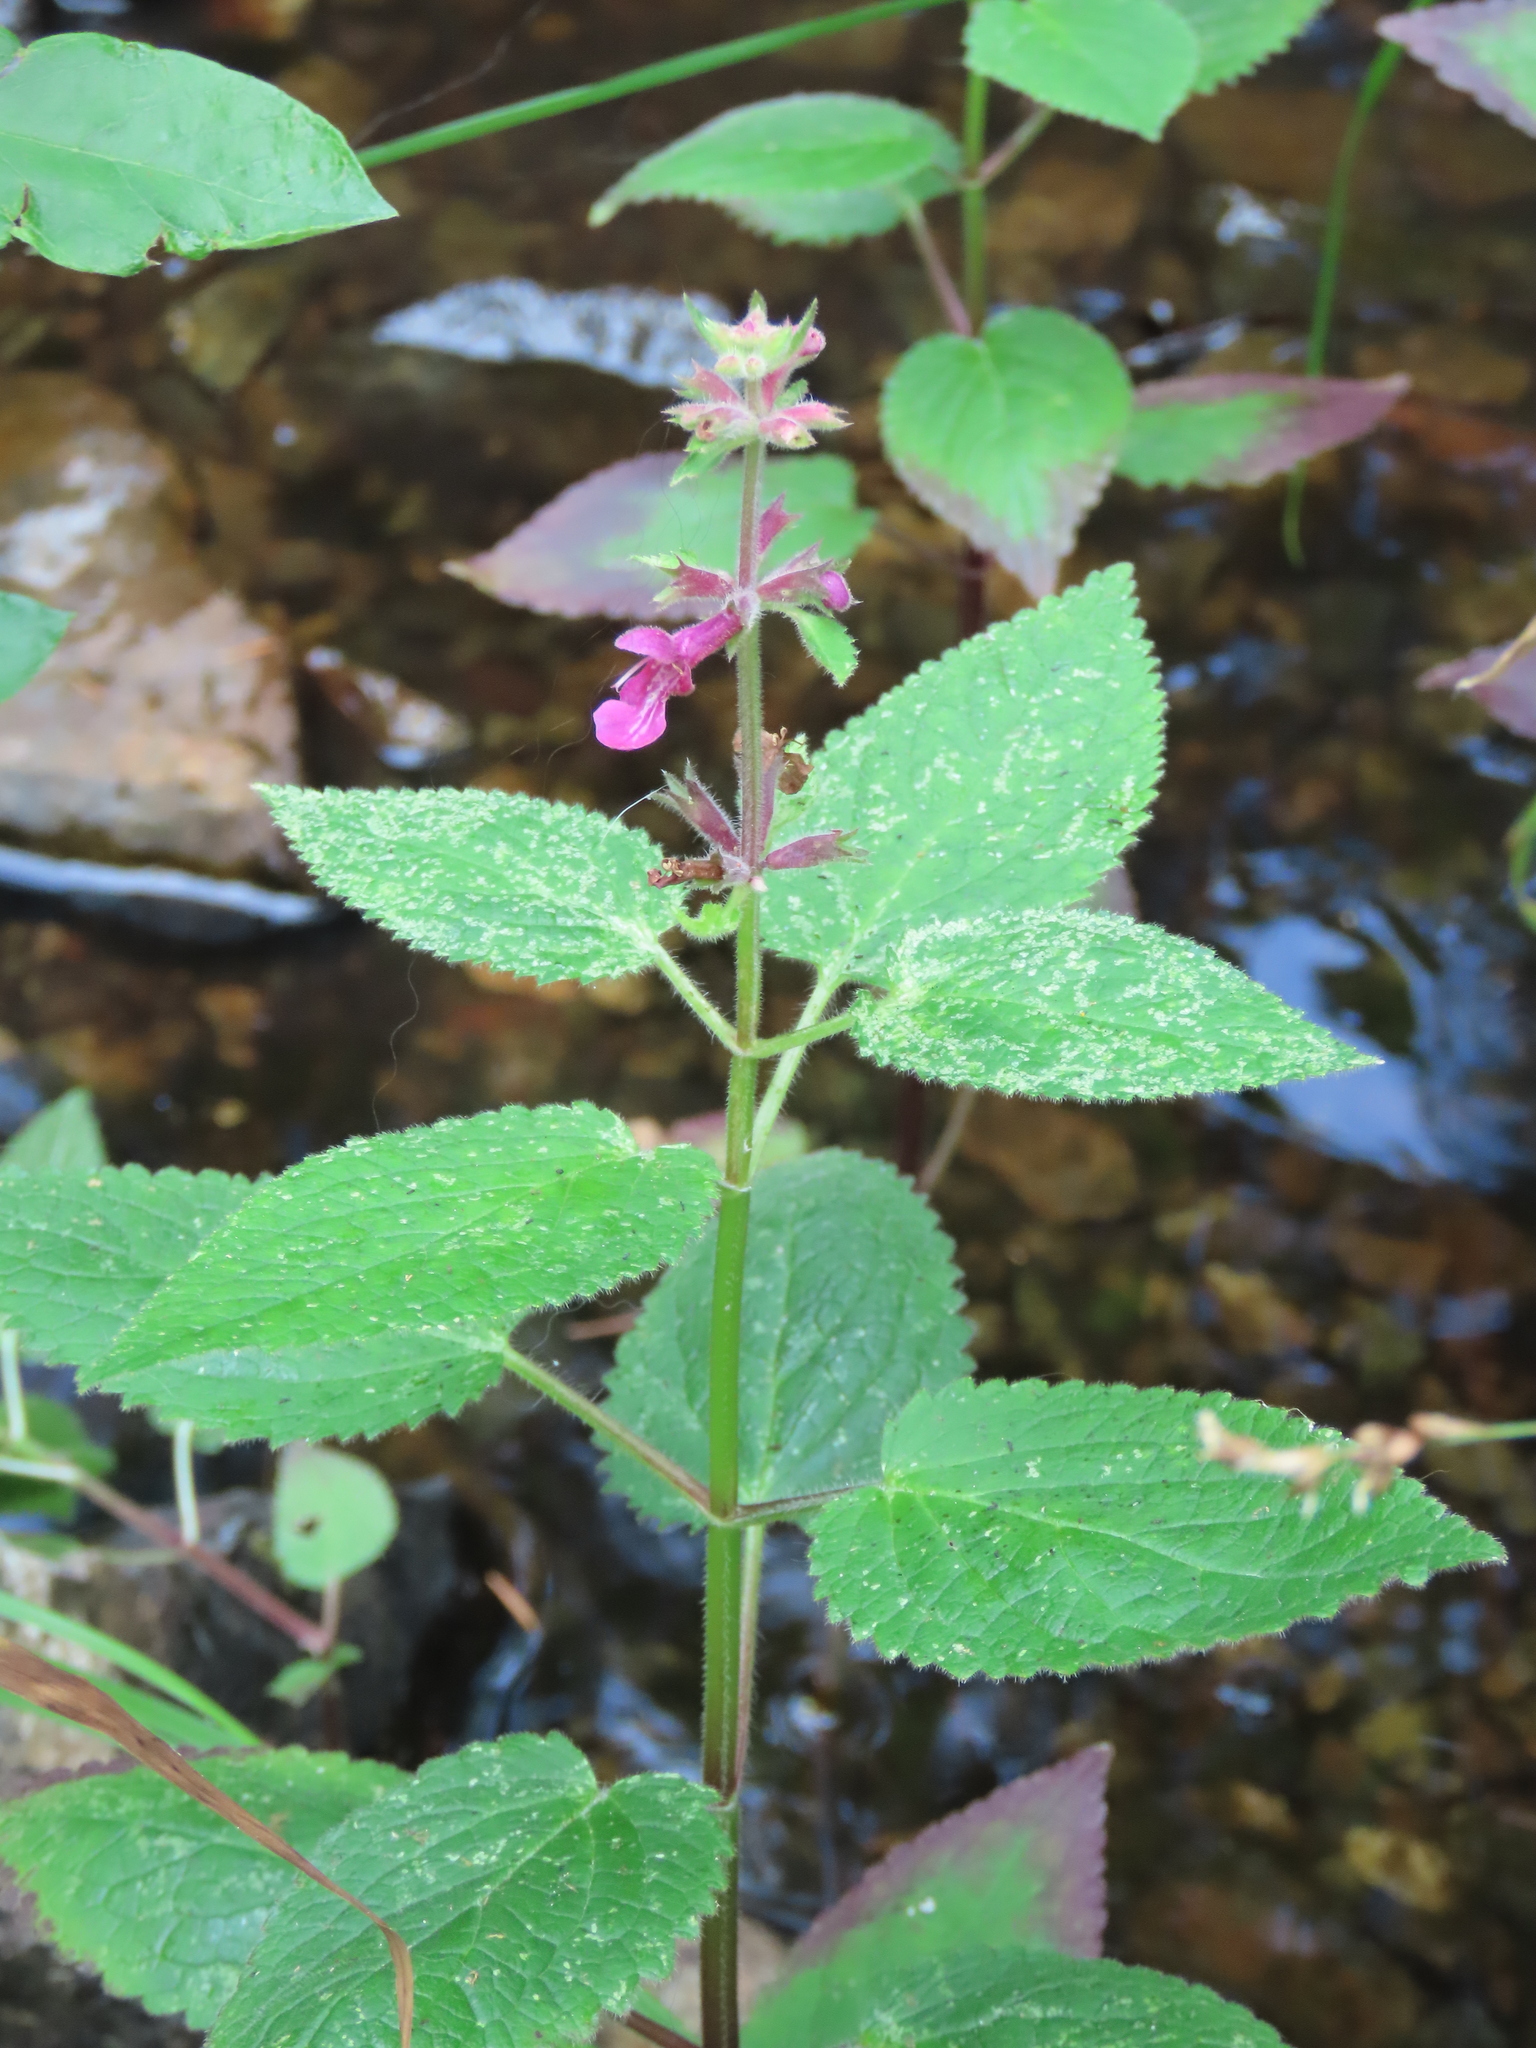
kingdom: Plantae
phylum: Tracheophyta
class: Magnoliopsida
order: Lamiales
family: Lamiaceae
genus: Stachys
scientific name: Stachys chamissonis
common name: Coastal hedge-nettle
